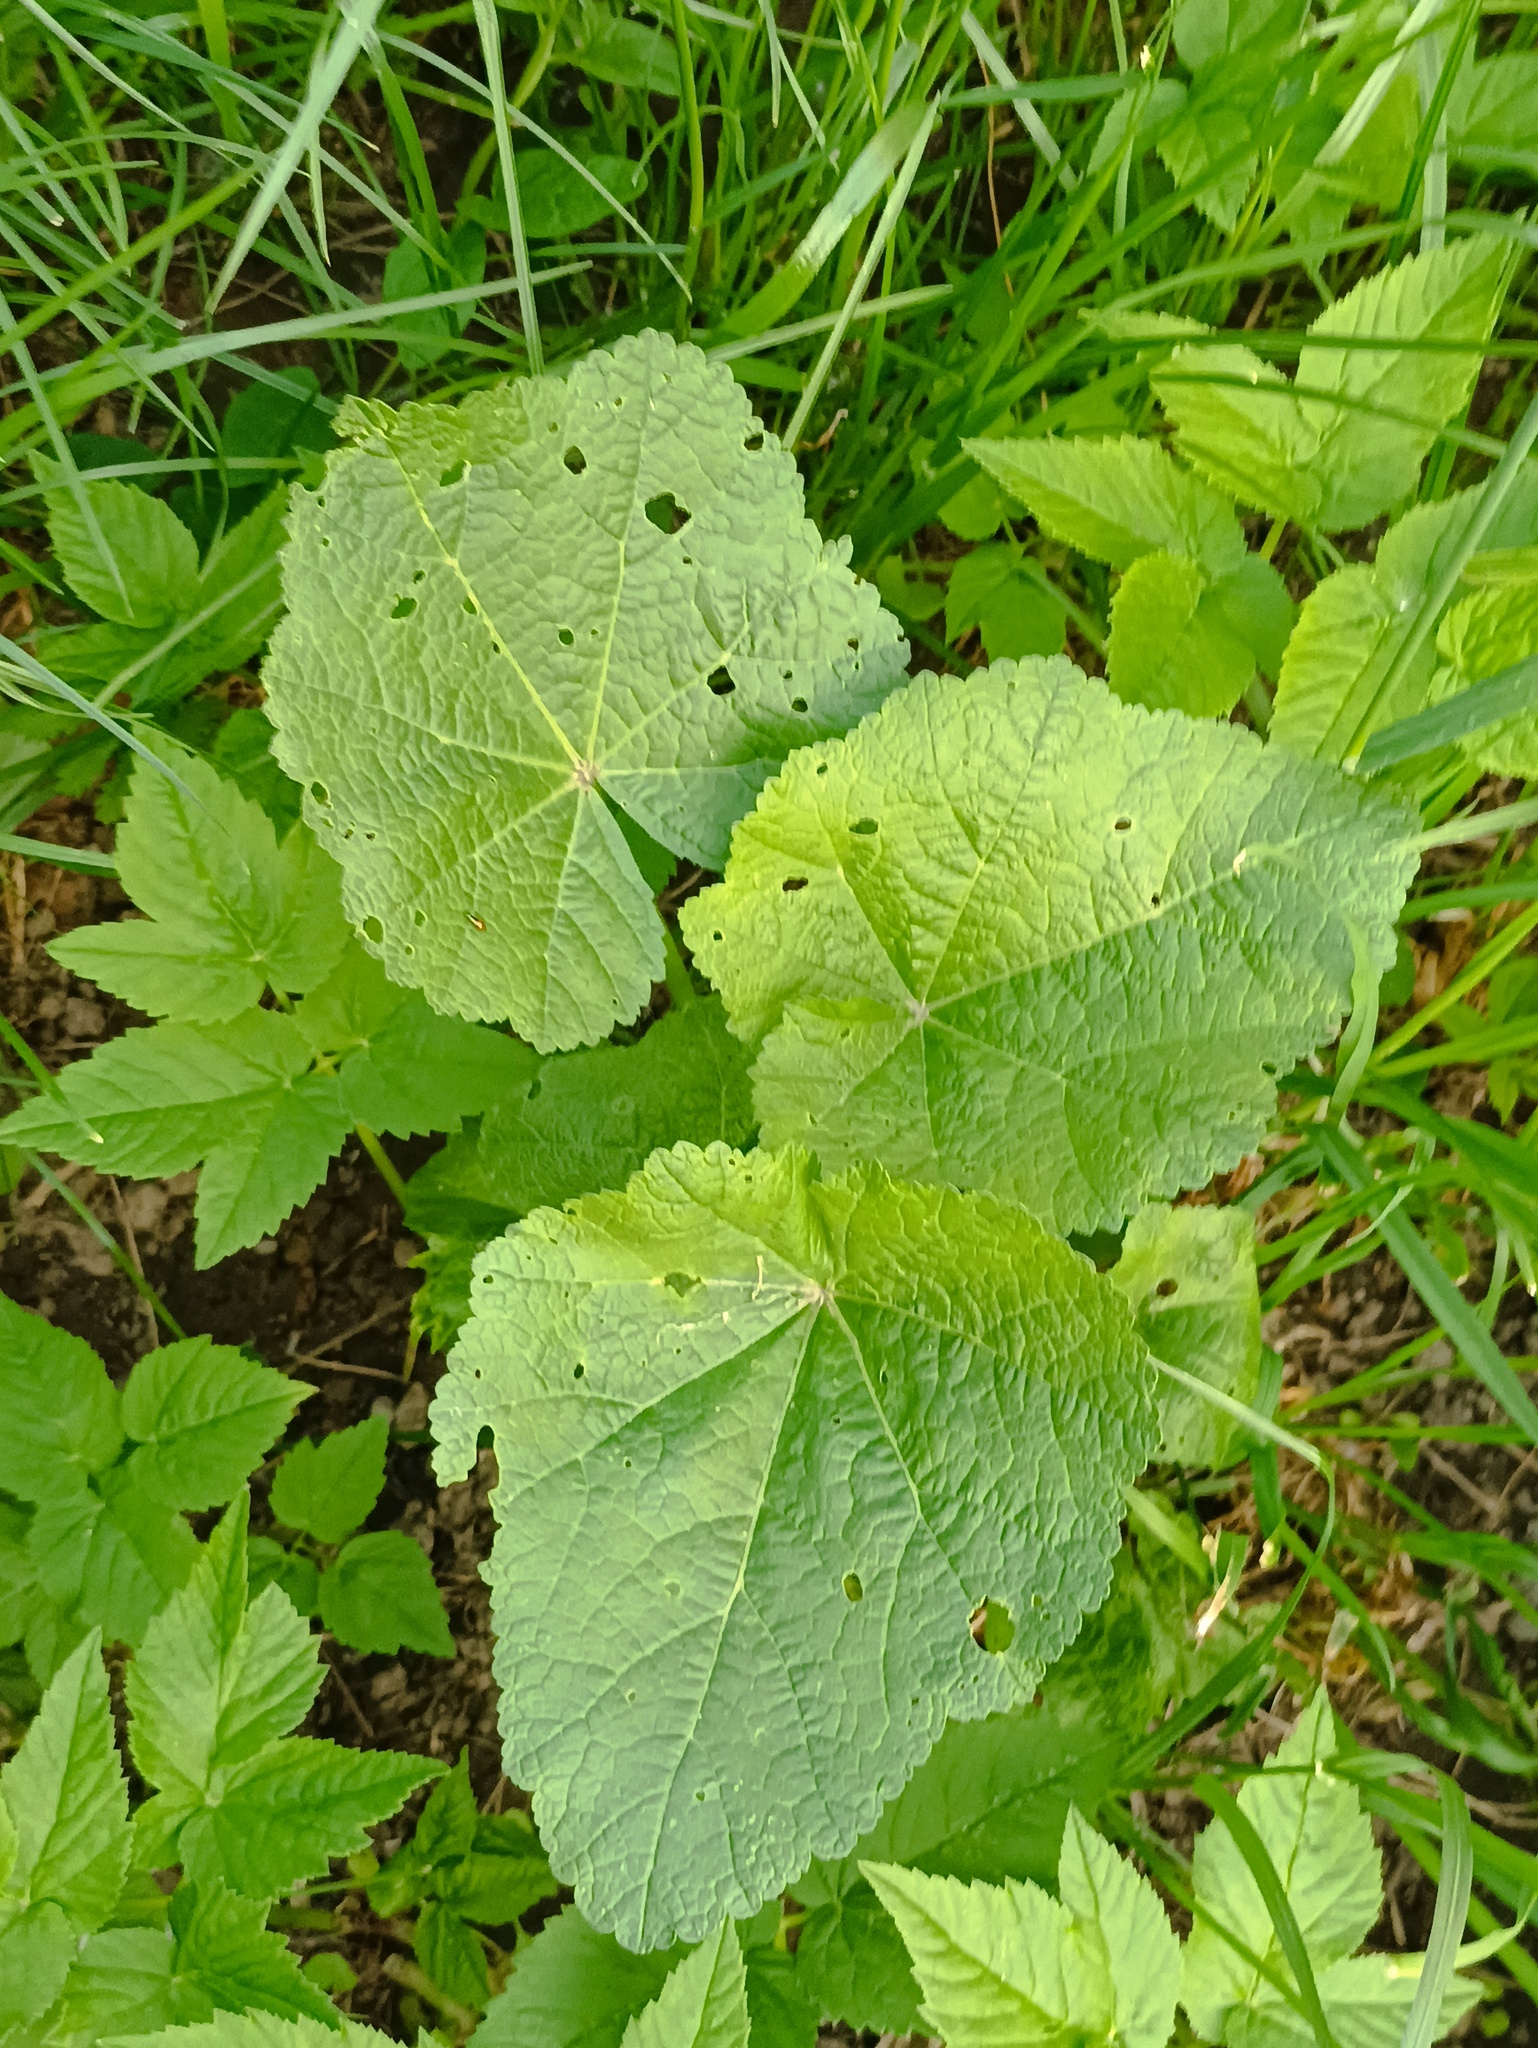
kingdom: Plantae
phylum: Tracheophyta
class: Magnoliopsida
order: Malvales
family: Malvaceae
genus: Alcea
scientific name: Alcea rosea
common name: Hollyhock
